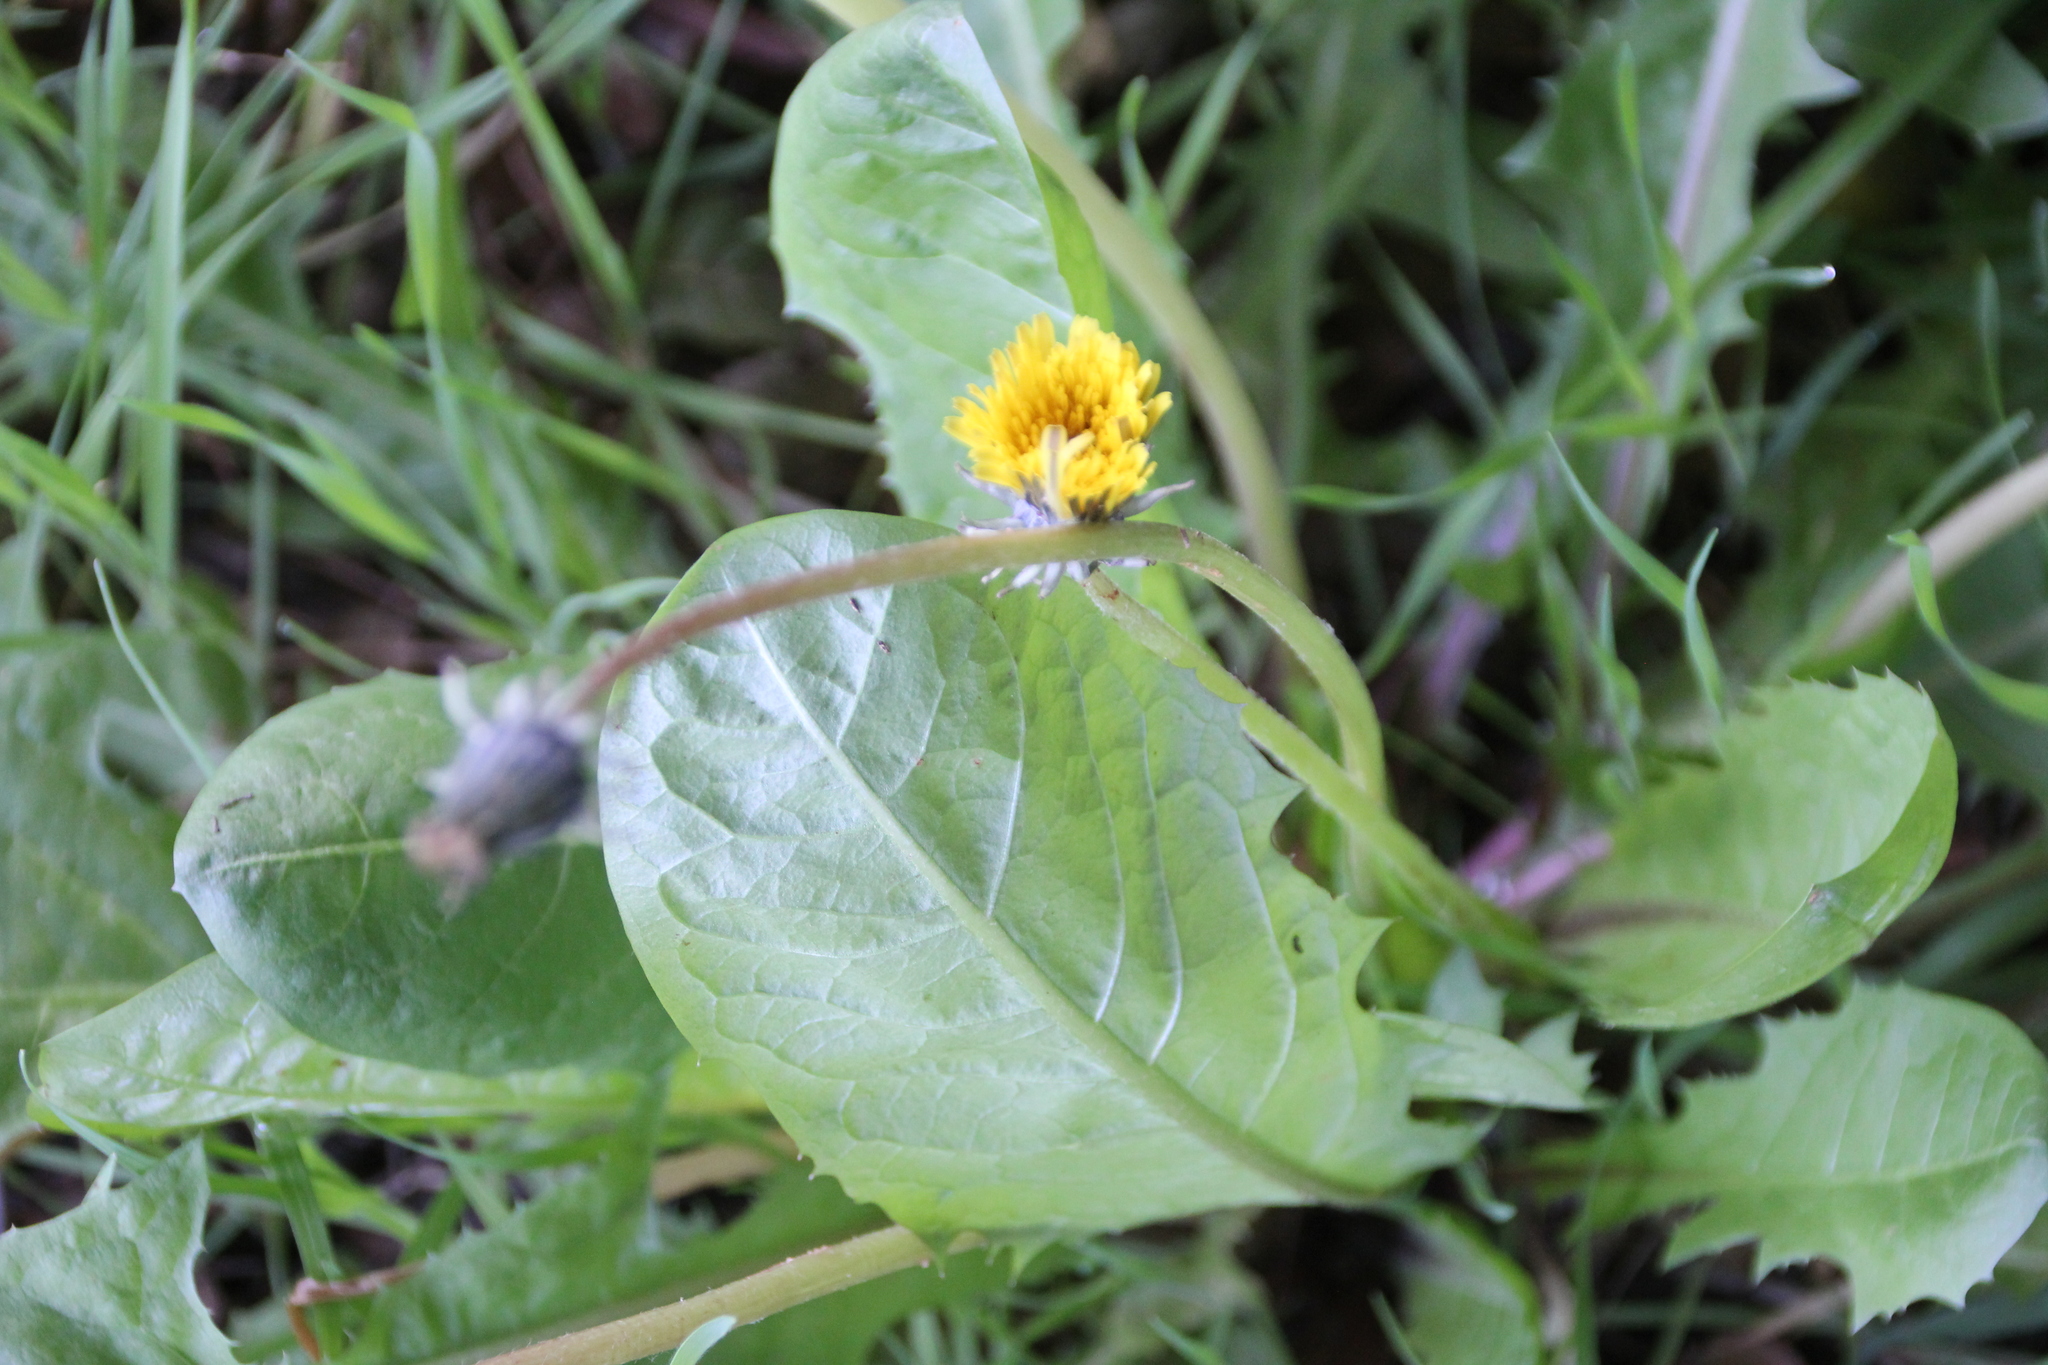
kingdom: Plantae
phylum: Tracheophyta
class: Magnoliopsida
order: Asterales
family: Asteraceae
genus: Taraxacum
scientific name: Taraxacum
